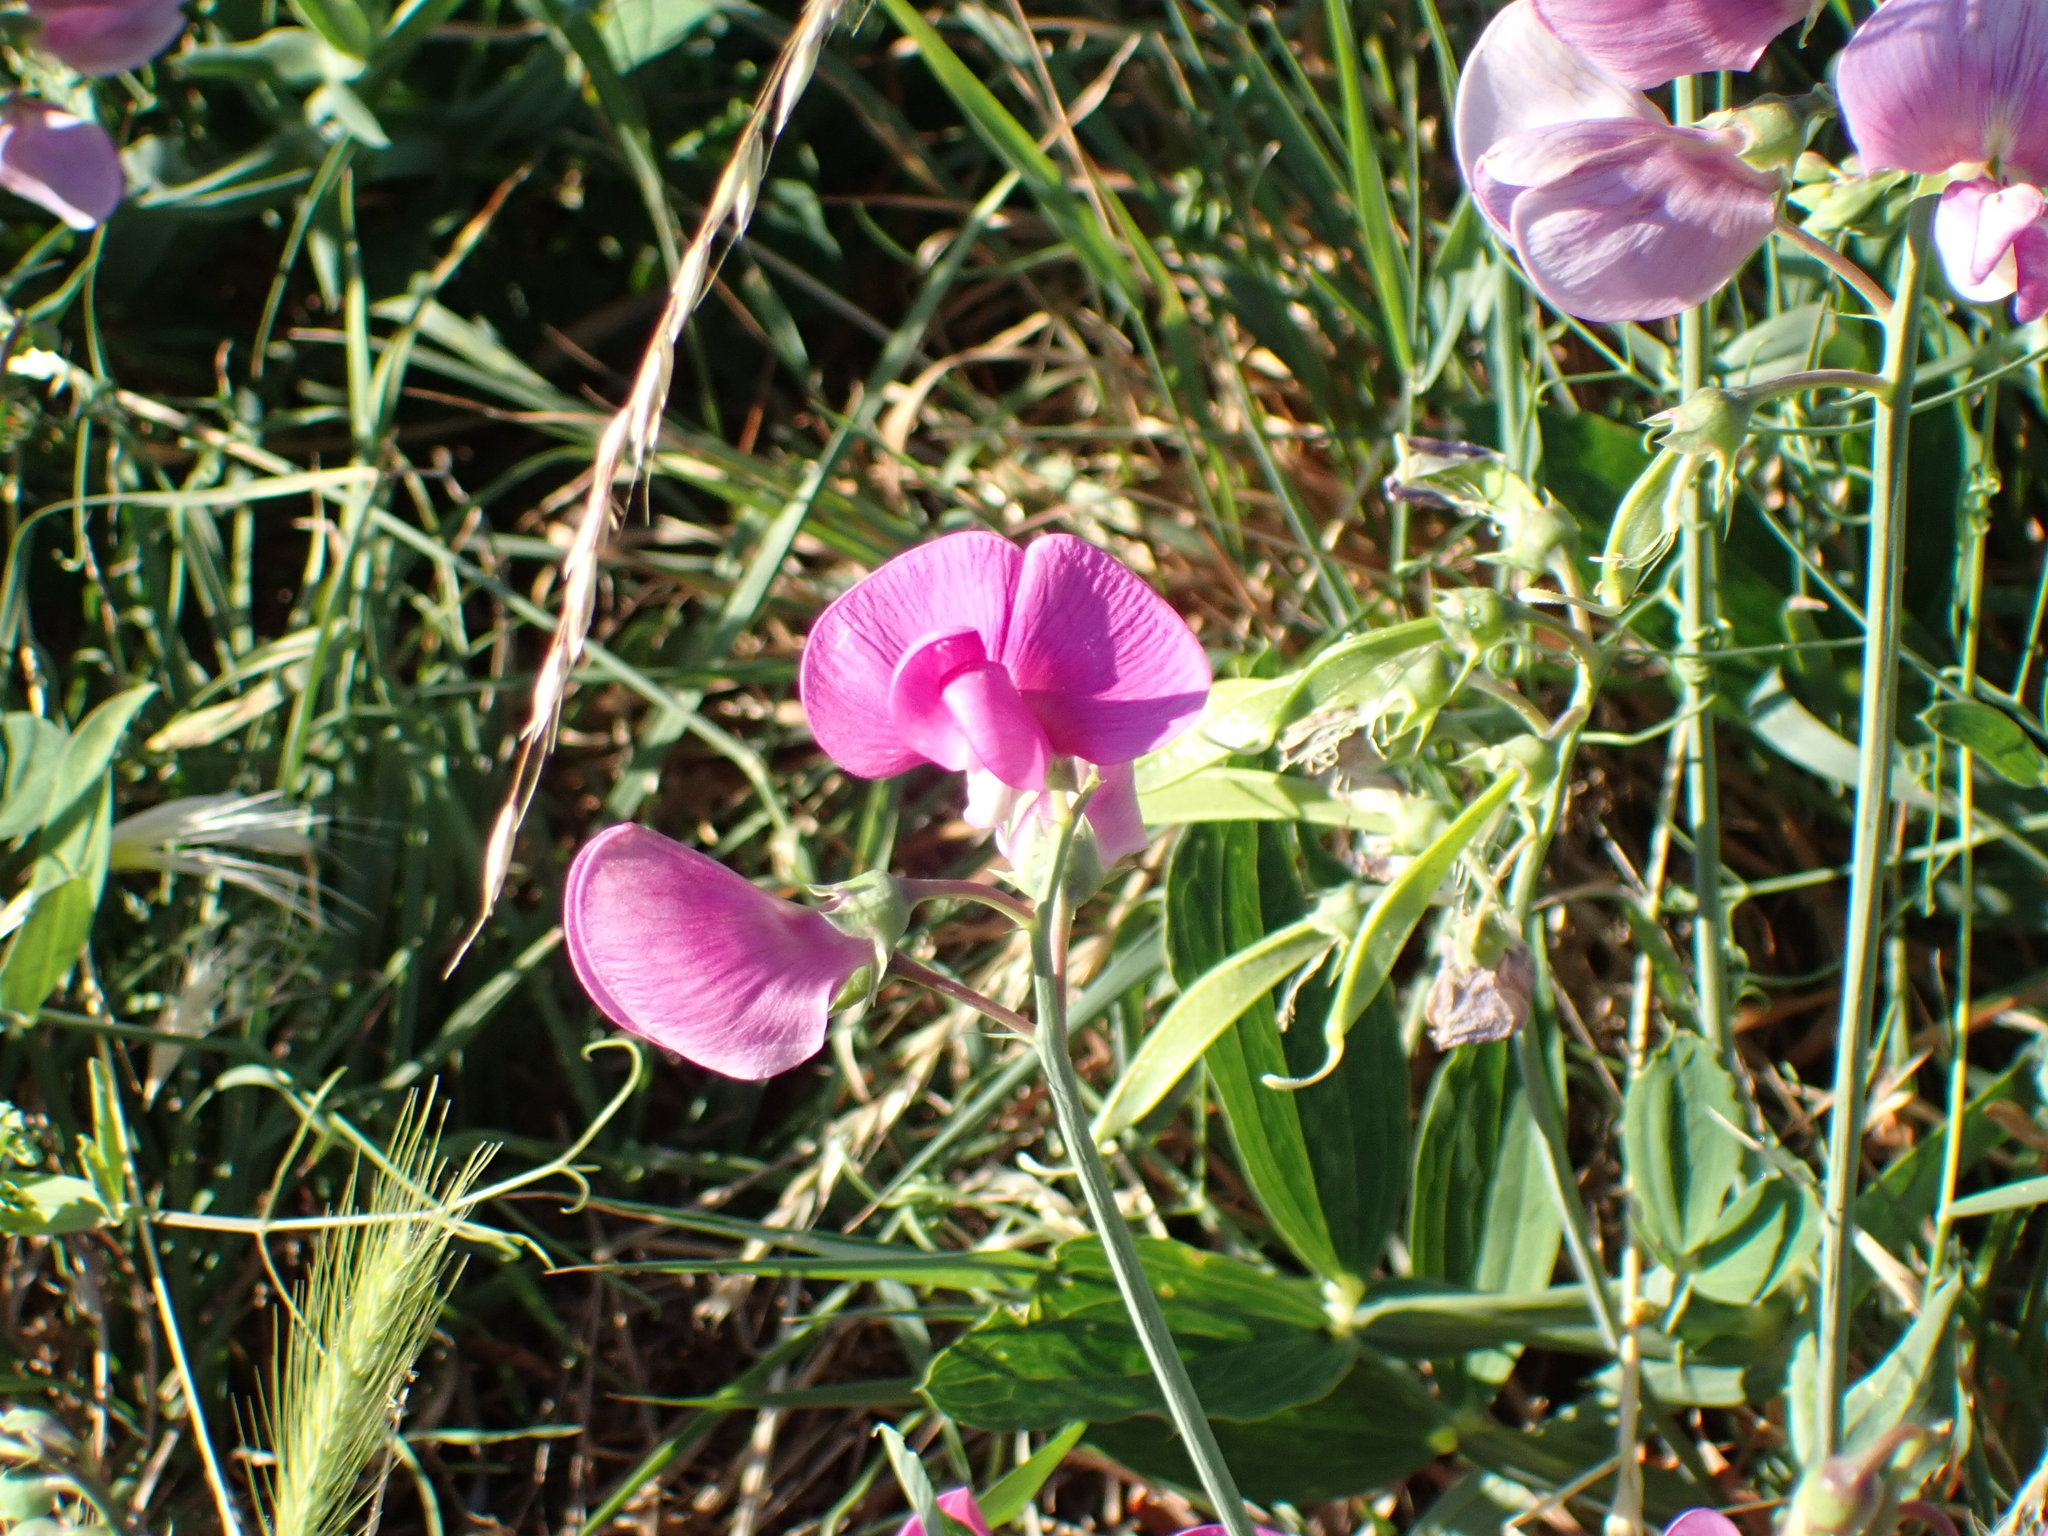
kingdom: Plantae
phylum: Tracheophyta
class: Magnoliopsida
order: Fabales
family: Fabaceae
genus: Lathyrus
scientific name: Lathyrus latifolius
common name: Perennial pea
